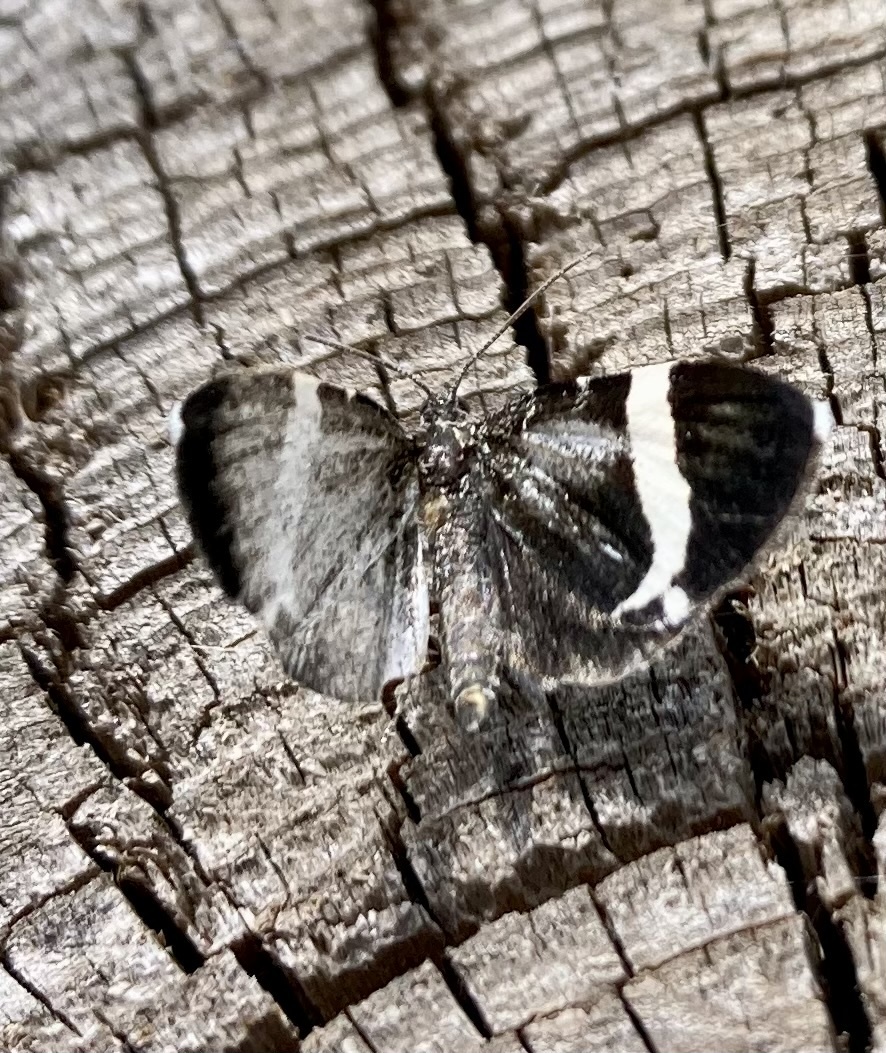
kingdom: Animalia
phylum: Arthropoda
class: Insecta
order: Lepidoptera
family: Geometridae
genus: Trichodezia
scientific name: Trichodezia albovittata
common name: White striped black
